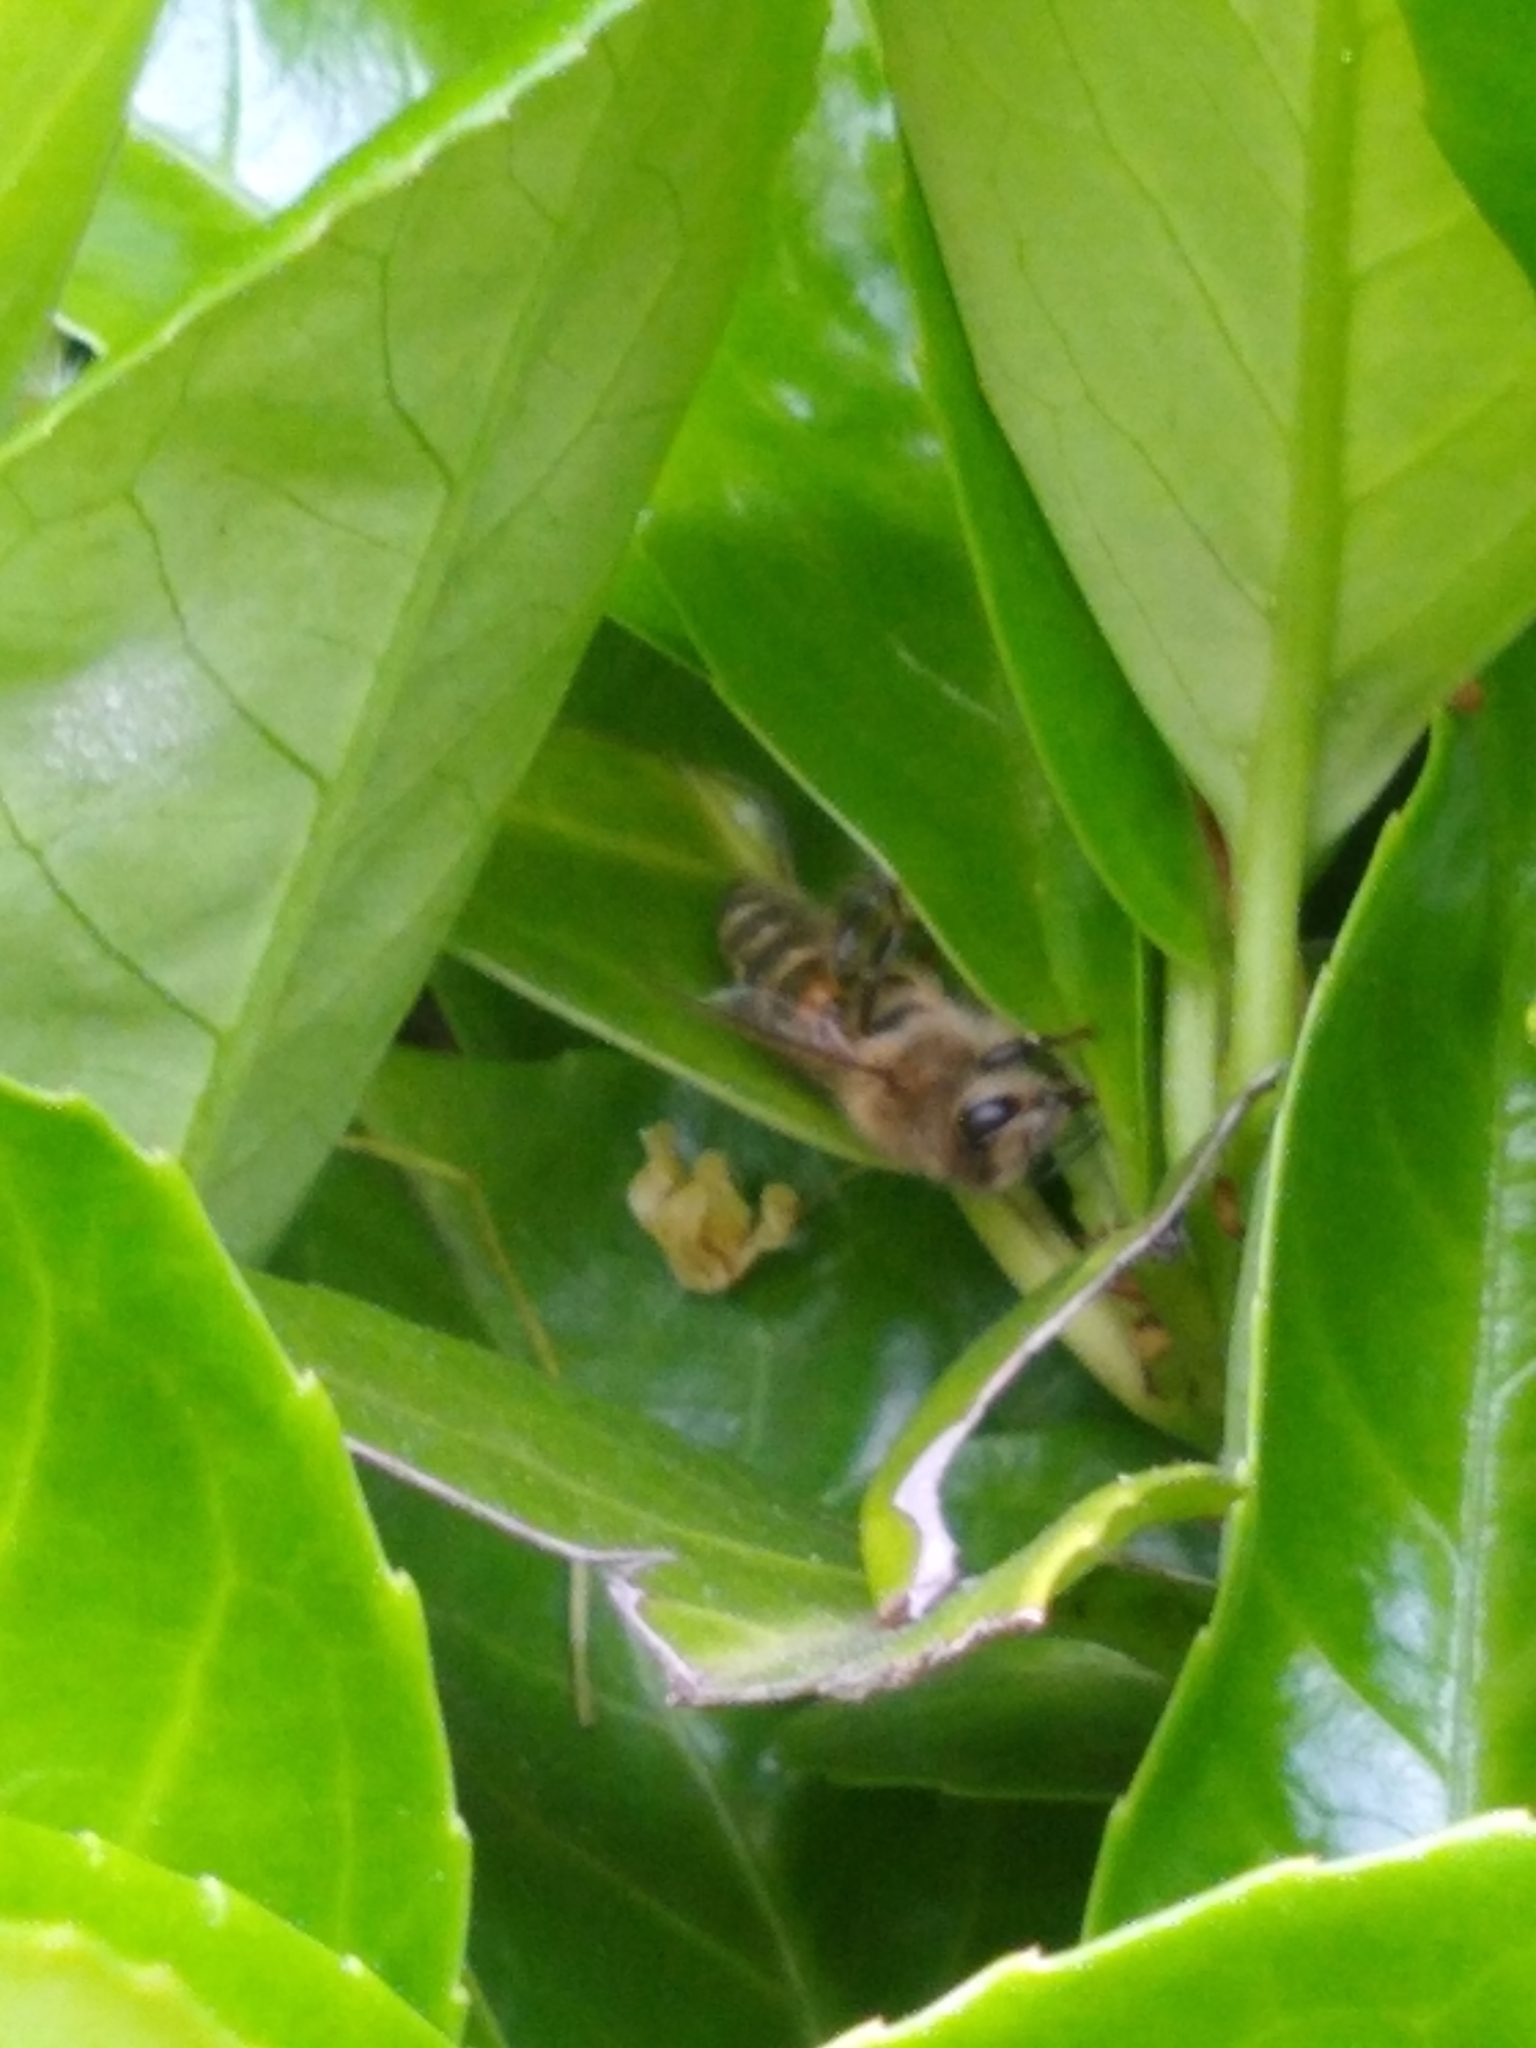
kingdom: Animalia
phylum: Arthropoda
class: Insecta
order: Hymenoptera
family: Apidae
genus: Apis
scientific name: Apis mellifera
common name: Honey bee
